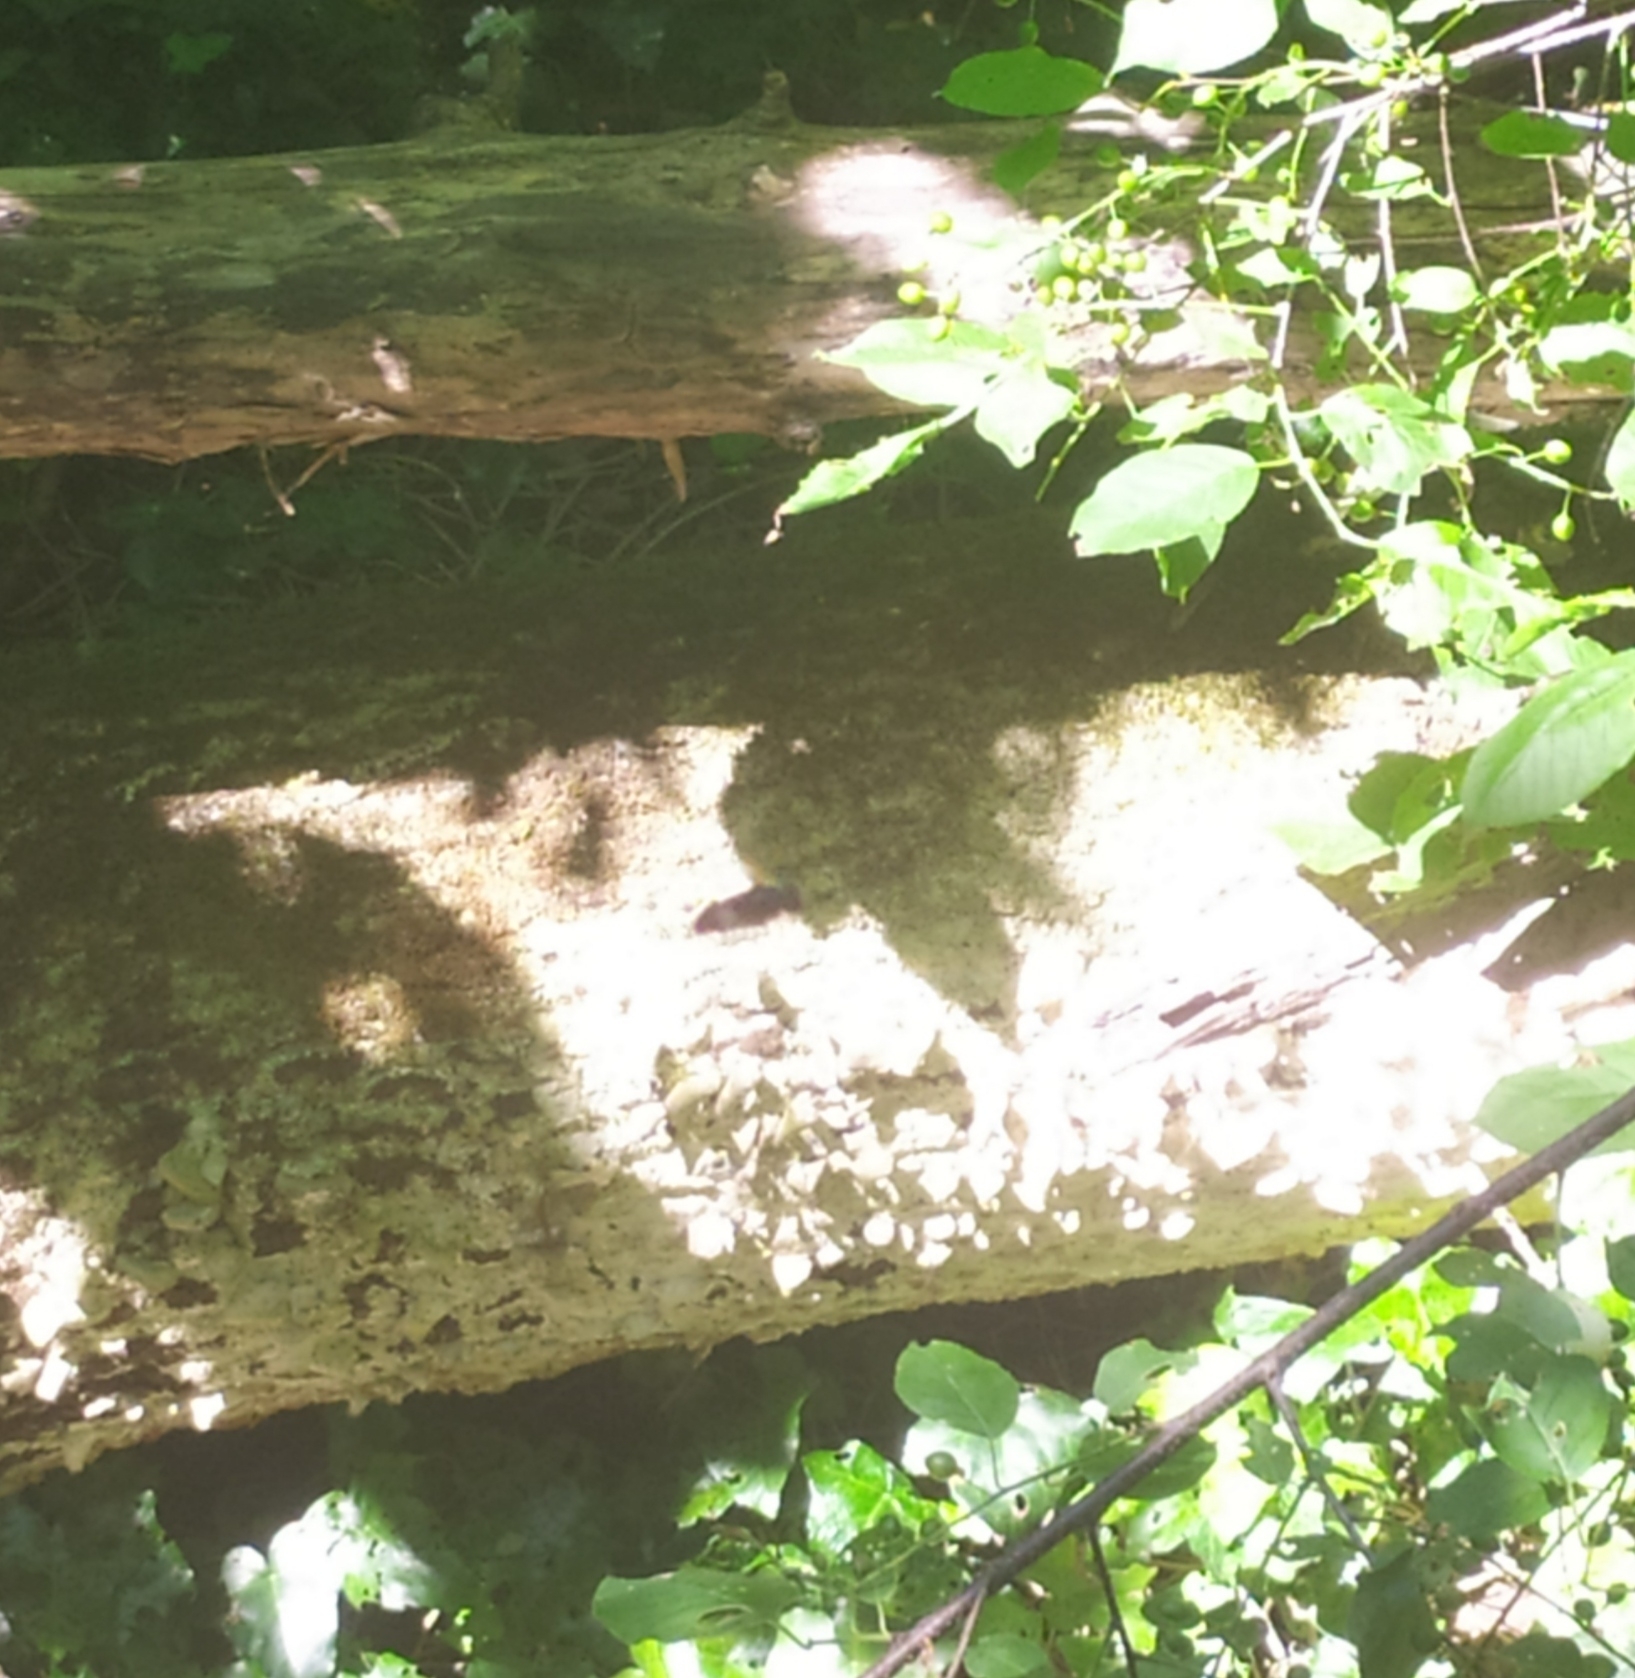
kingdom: Animalia
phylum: Arthropoda
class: Insecta
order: Diptera
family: Syrphidae
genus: Volucella
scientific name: Volucella pellucens
